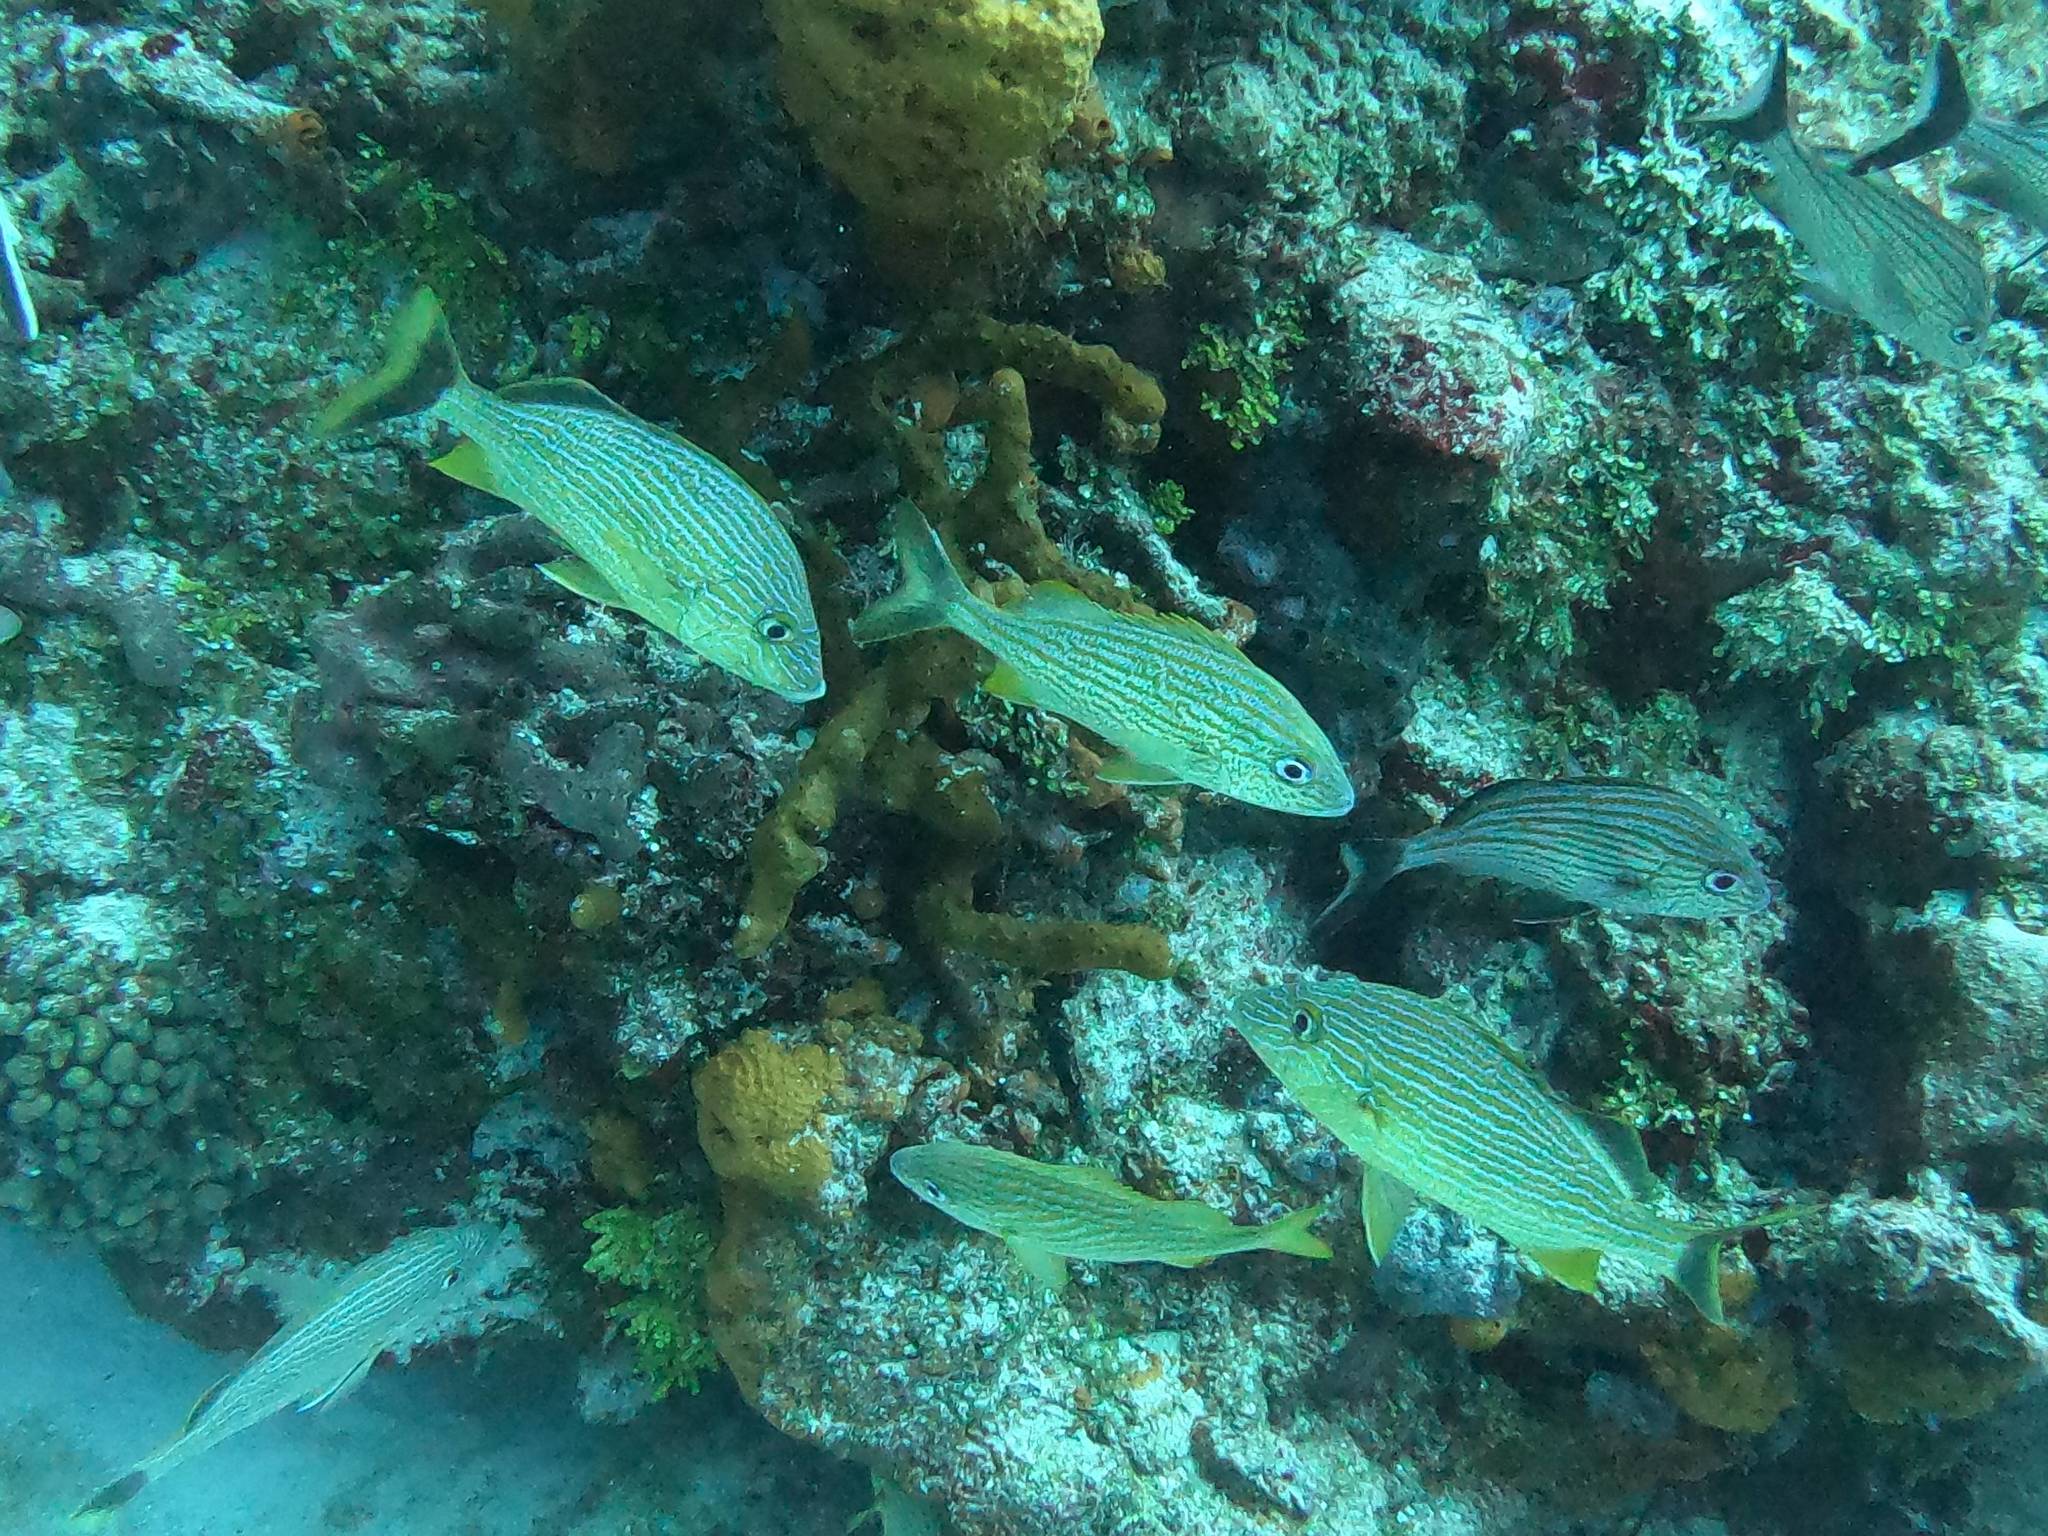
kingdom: Animalia
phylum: Chordata
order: Perciformes
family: Haemulidae
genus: Haemulon
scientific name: Haemulon sciurus
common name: Bluestriped grunt
